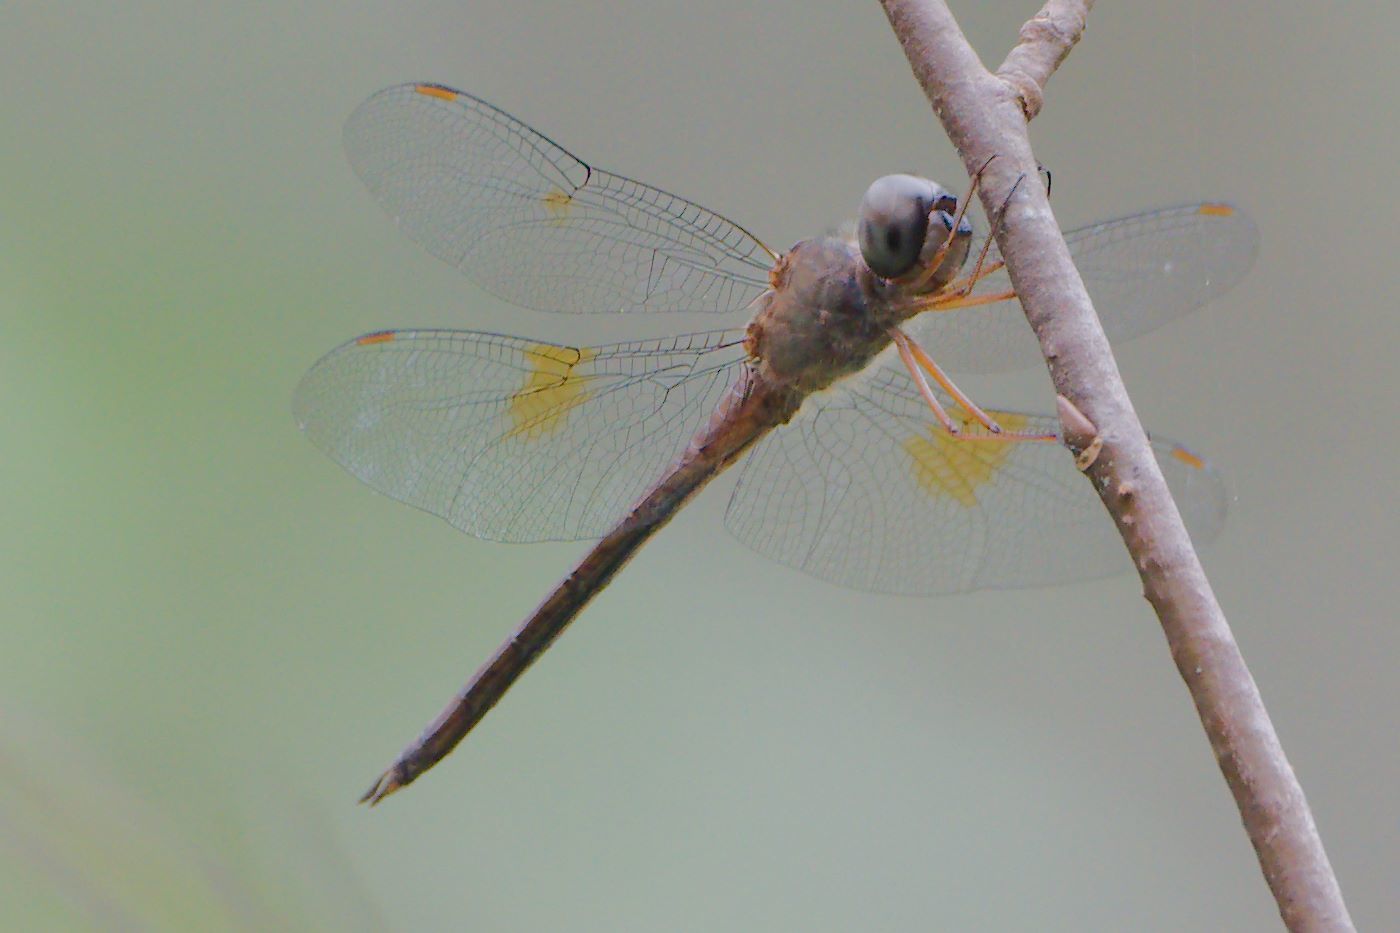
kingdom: Animalia
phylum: Arthropoda
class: Insecta
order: Odonata
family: Libellulidae
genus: Tholymis
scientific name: Tholymis citrina
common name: Evening skimmer
